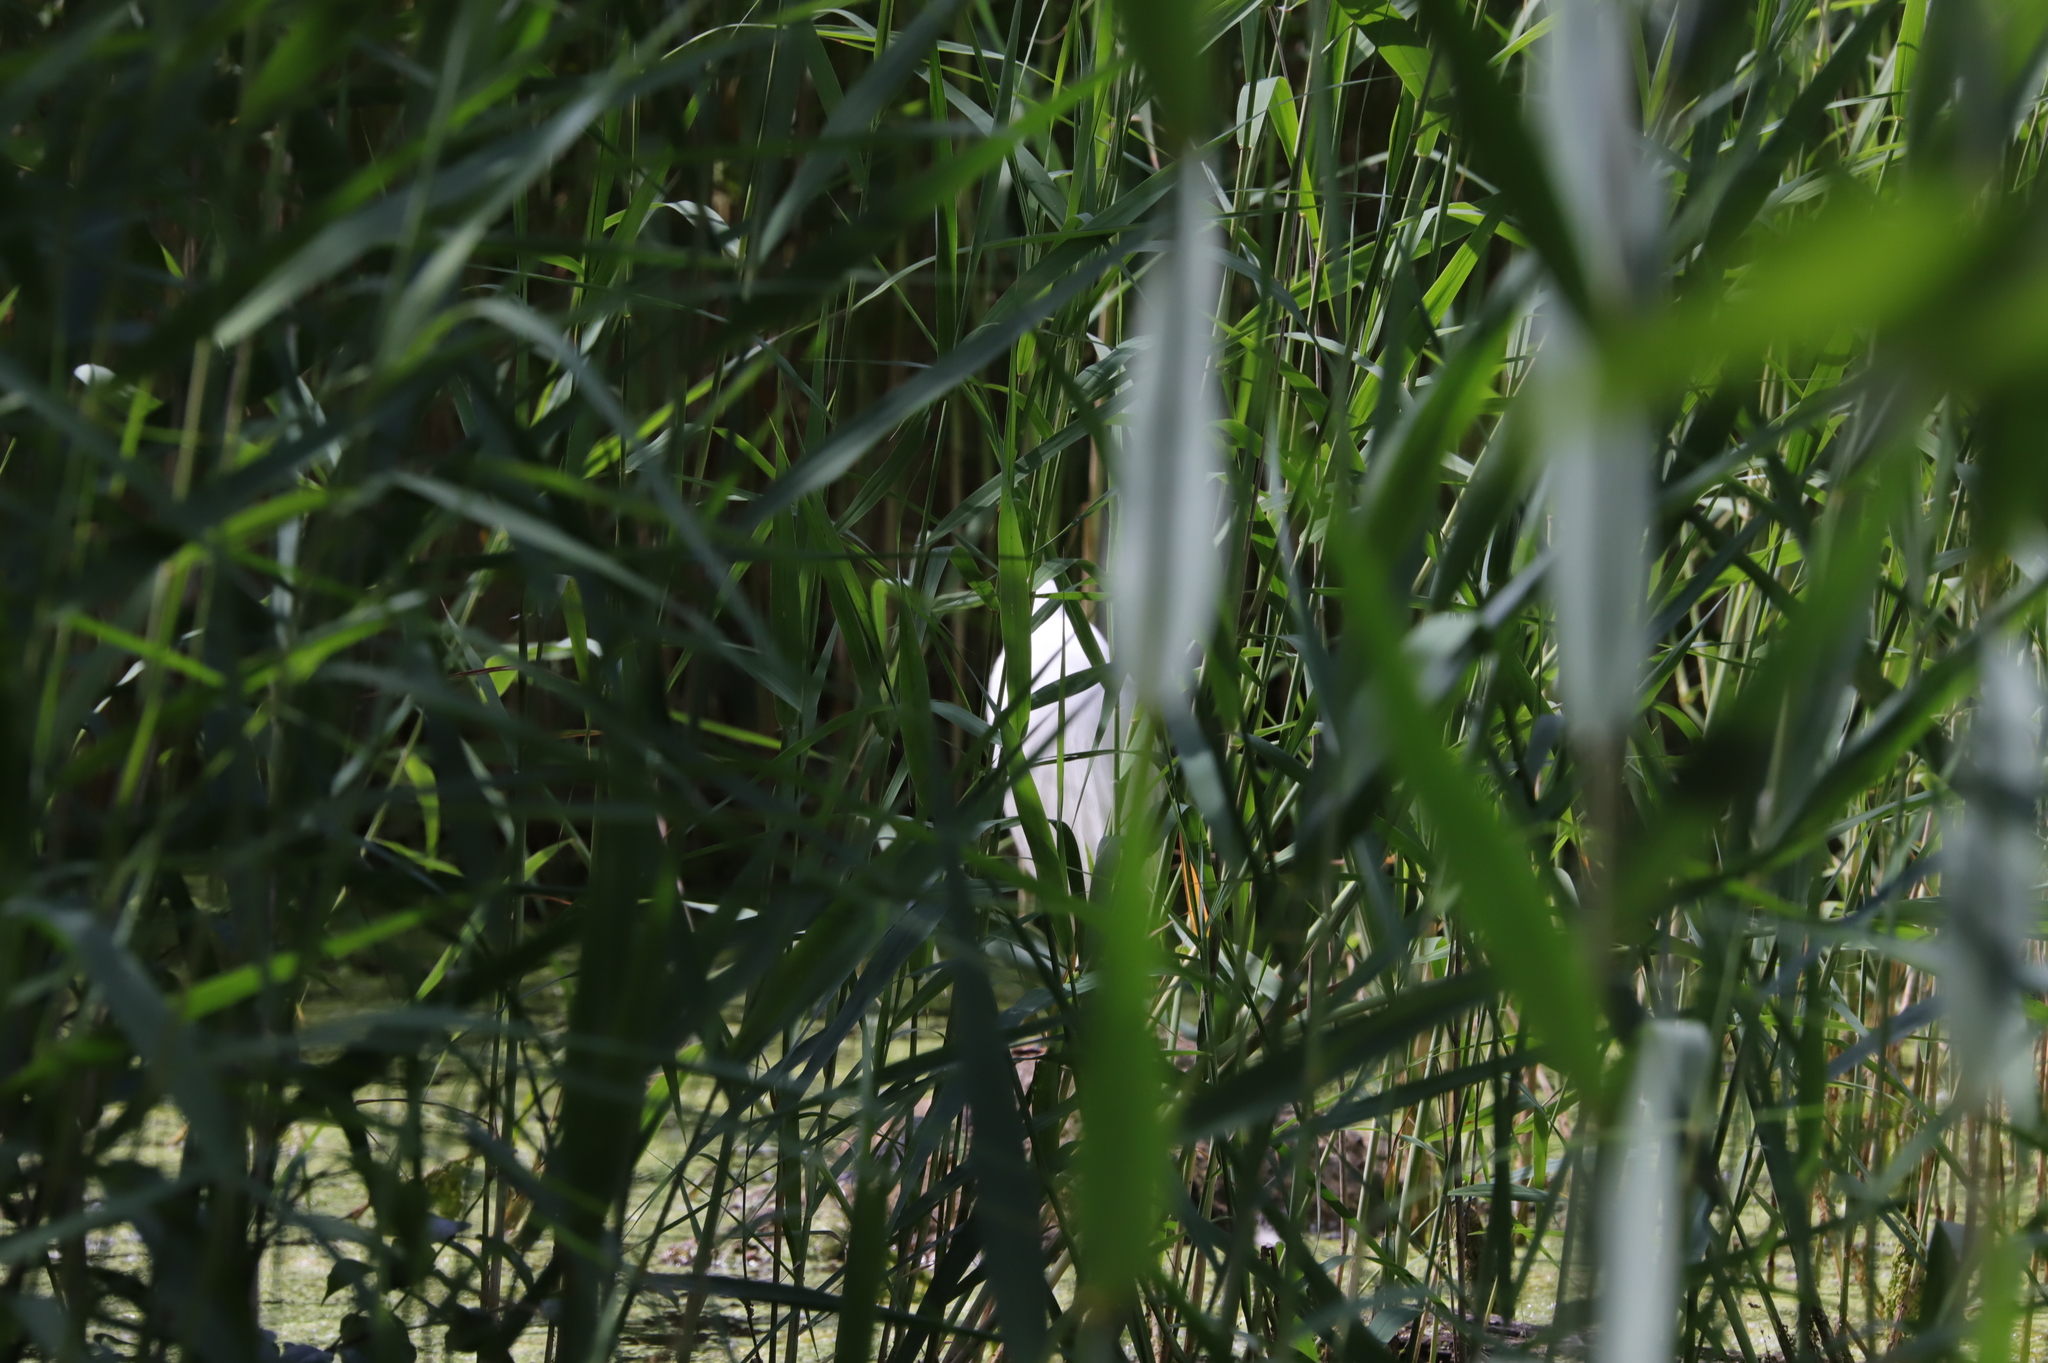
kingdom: Animalia
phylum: Chordata
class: Aves
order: Pelecaniformes
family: Ardeidae
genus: Ardea
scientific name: Ardea alba
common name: Great egret
